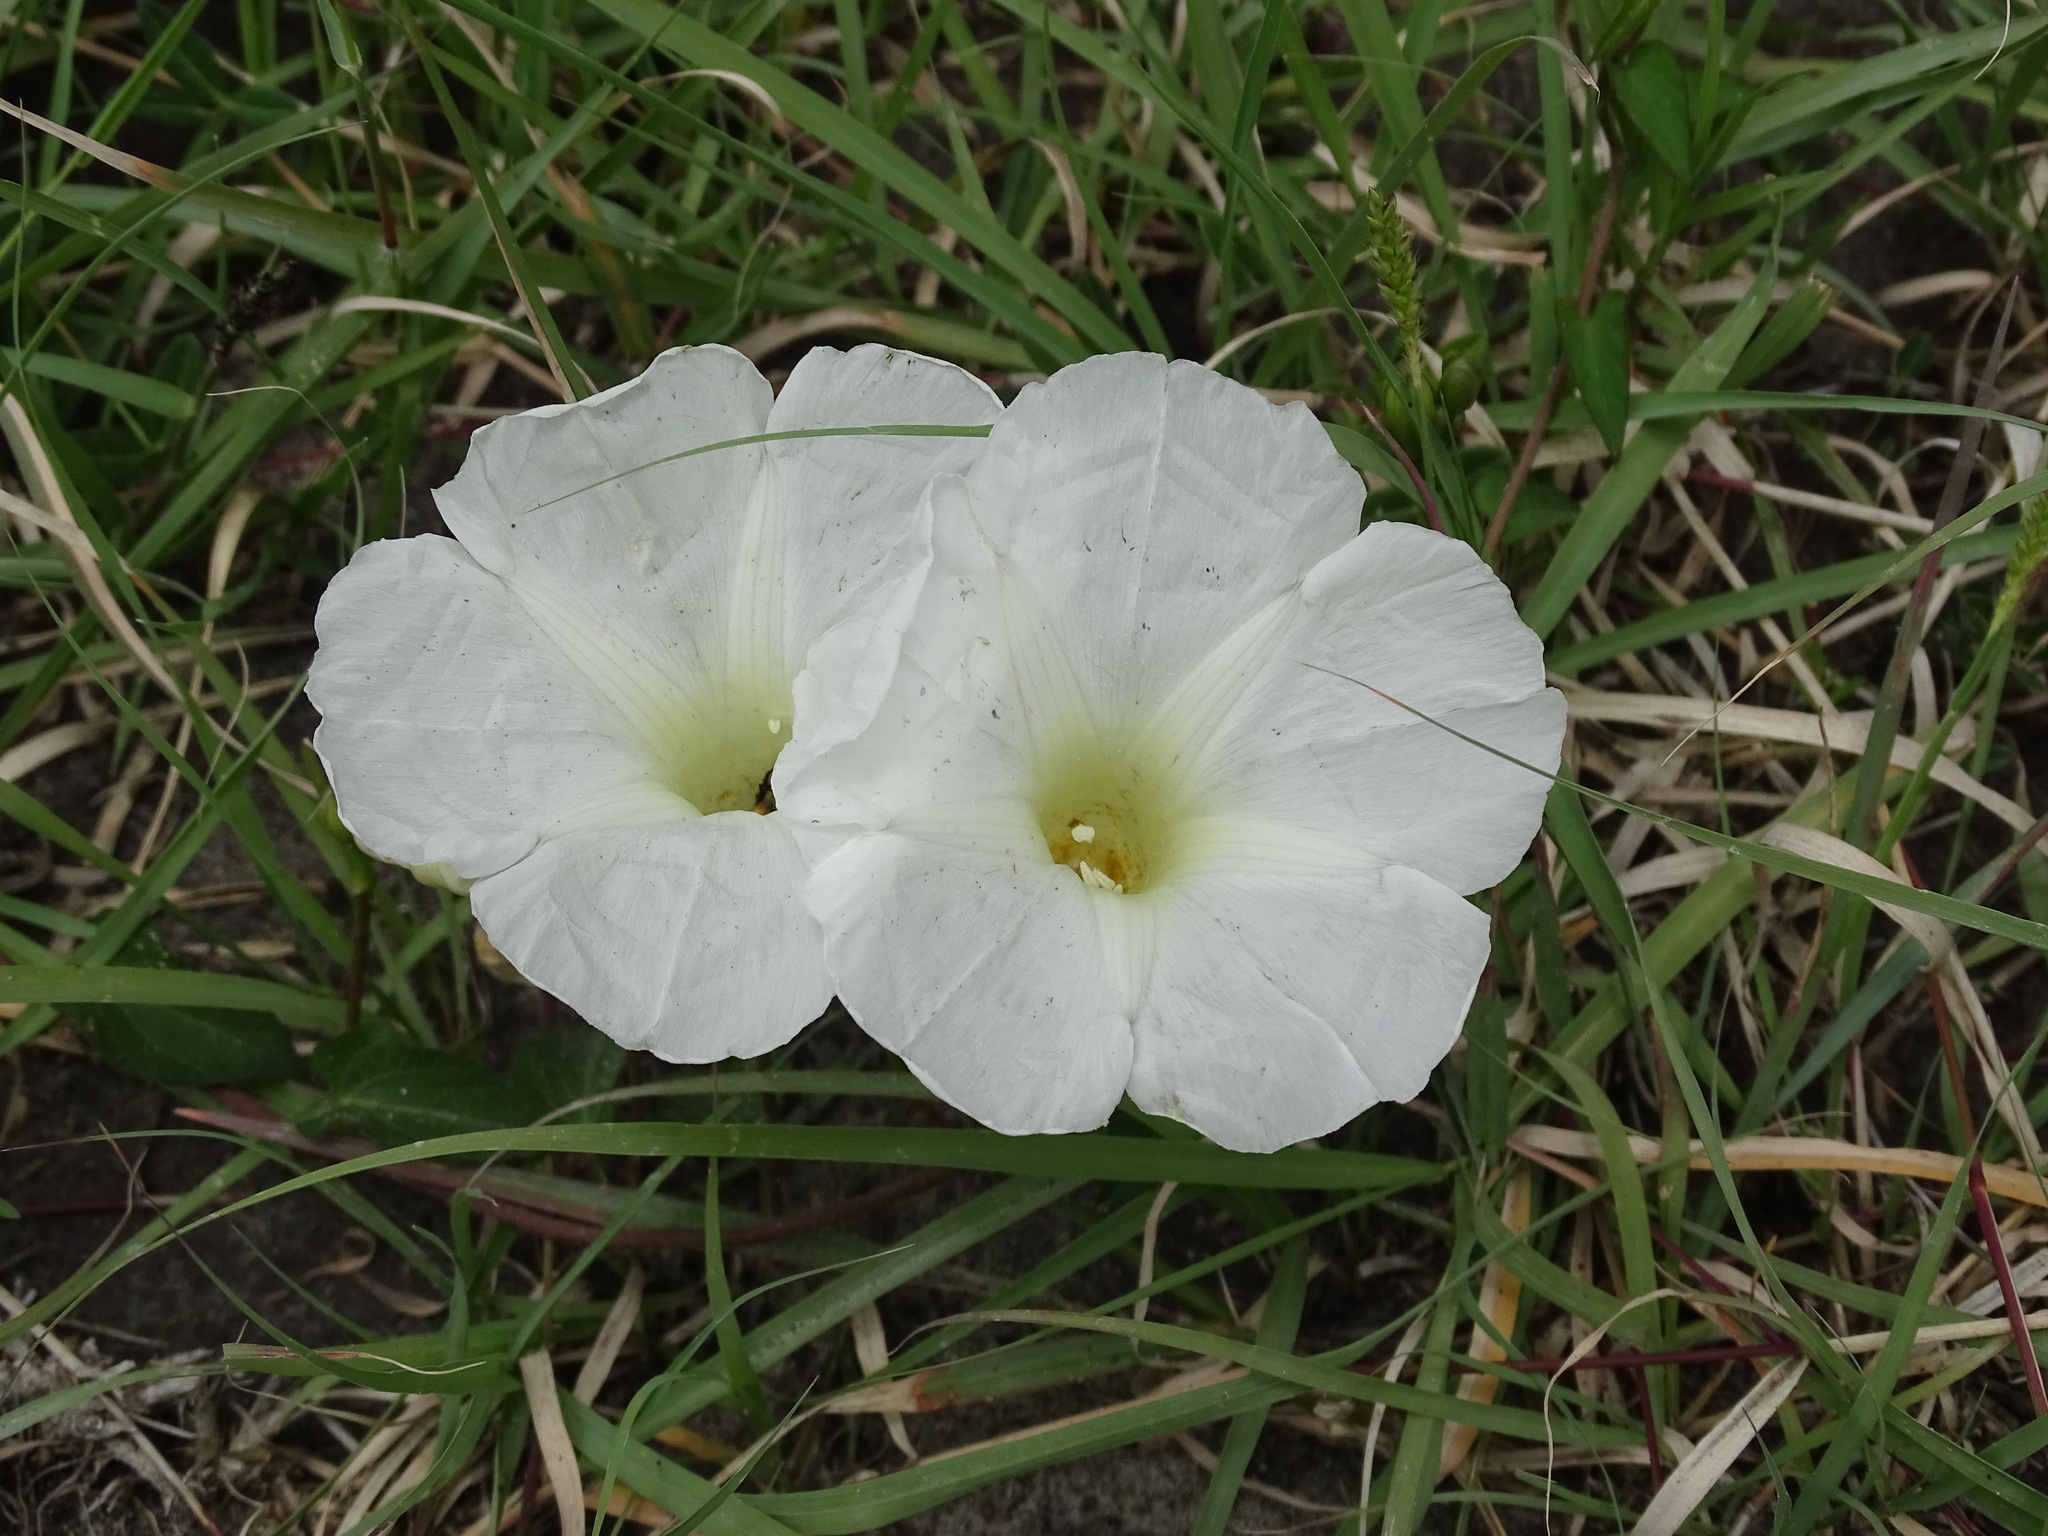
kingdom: Plantae
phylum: Tracheophyta
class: Magnoliopsida
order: Solanales
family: Convolvulaceae
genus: Ipomoea
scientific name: Ipomoea proxima
